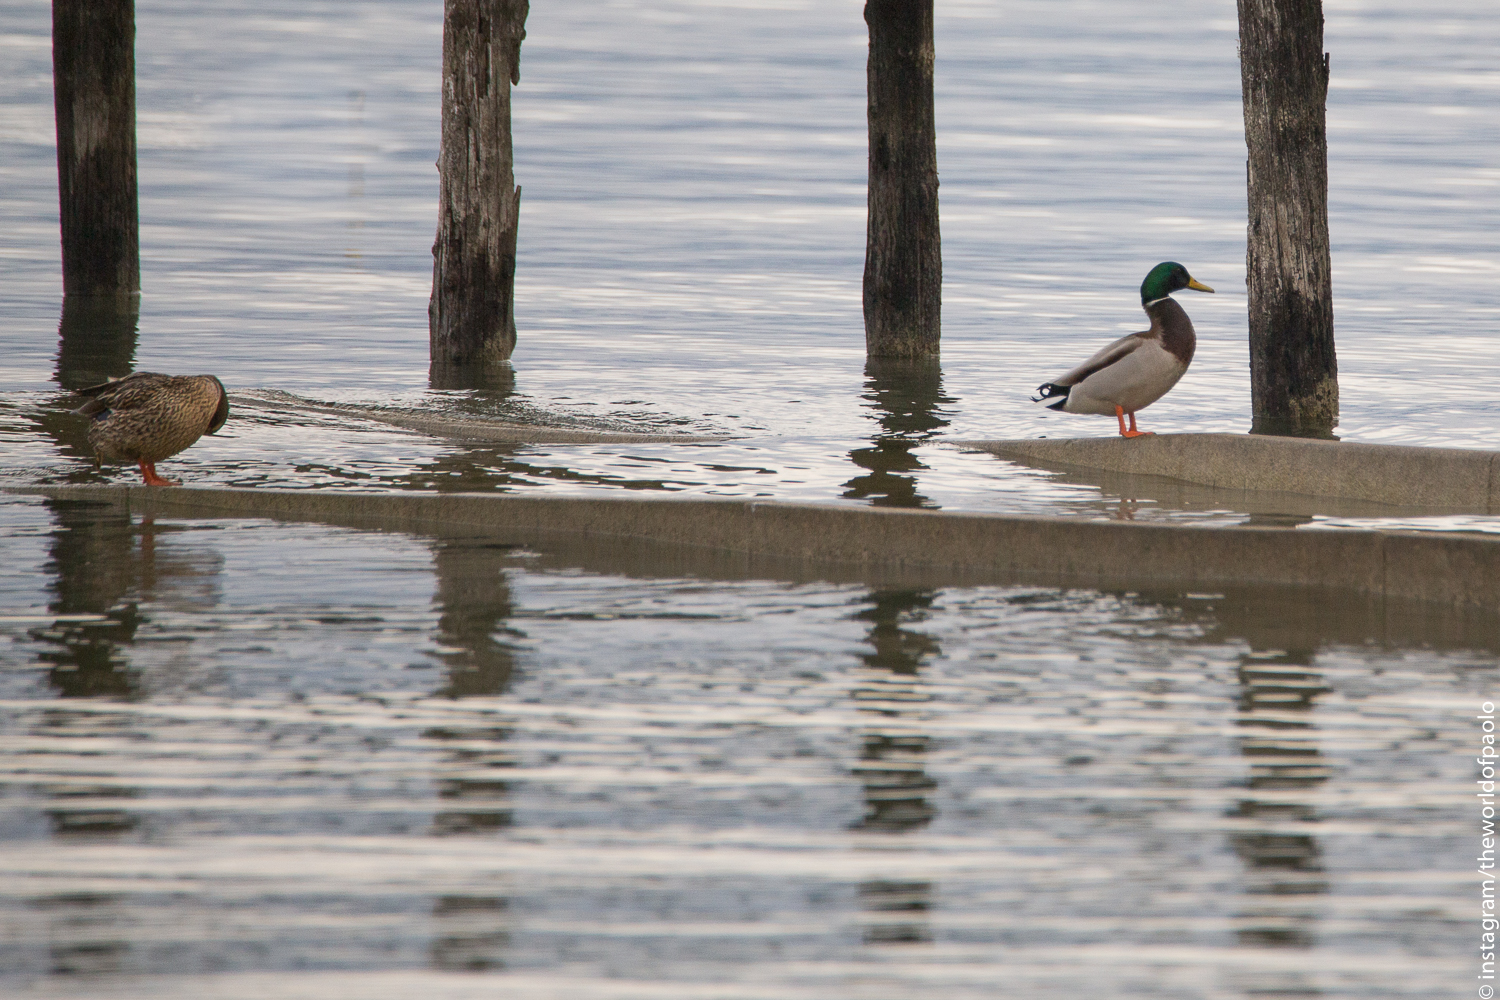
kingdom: Animalia
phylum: Chordata
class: Aves
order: Anseriformes
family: Anatidae
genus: Anas
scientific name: Anas platyrhynchos
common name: Mallard
